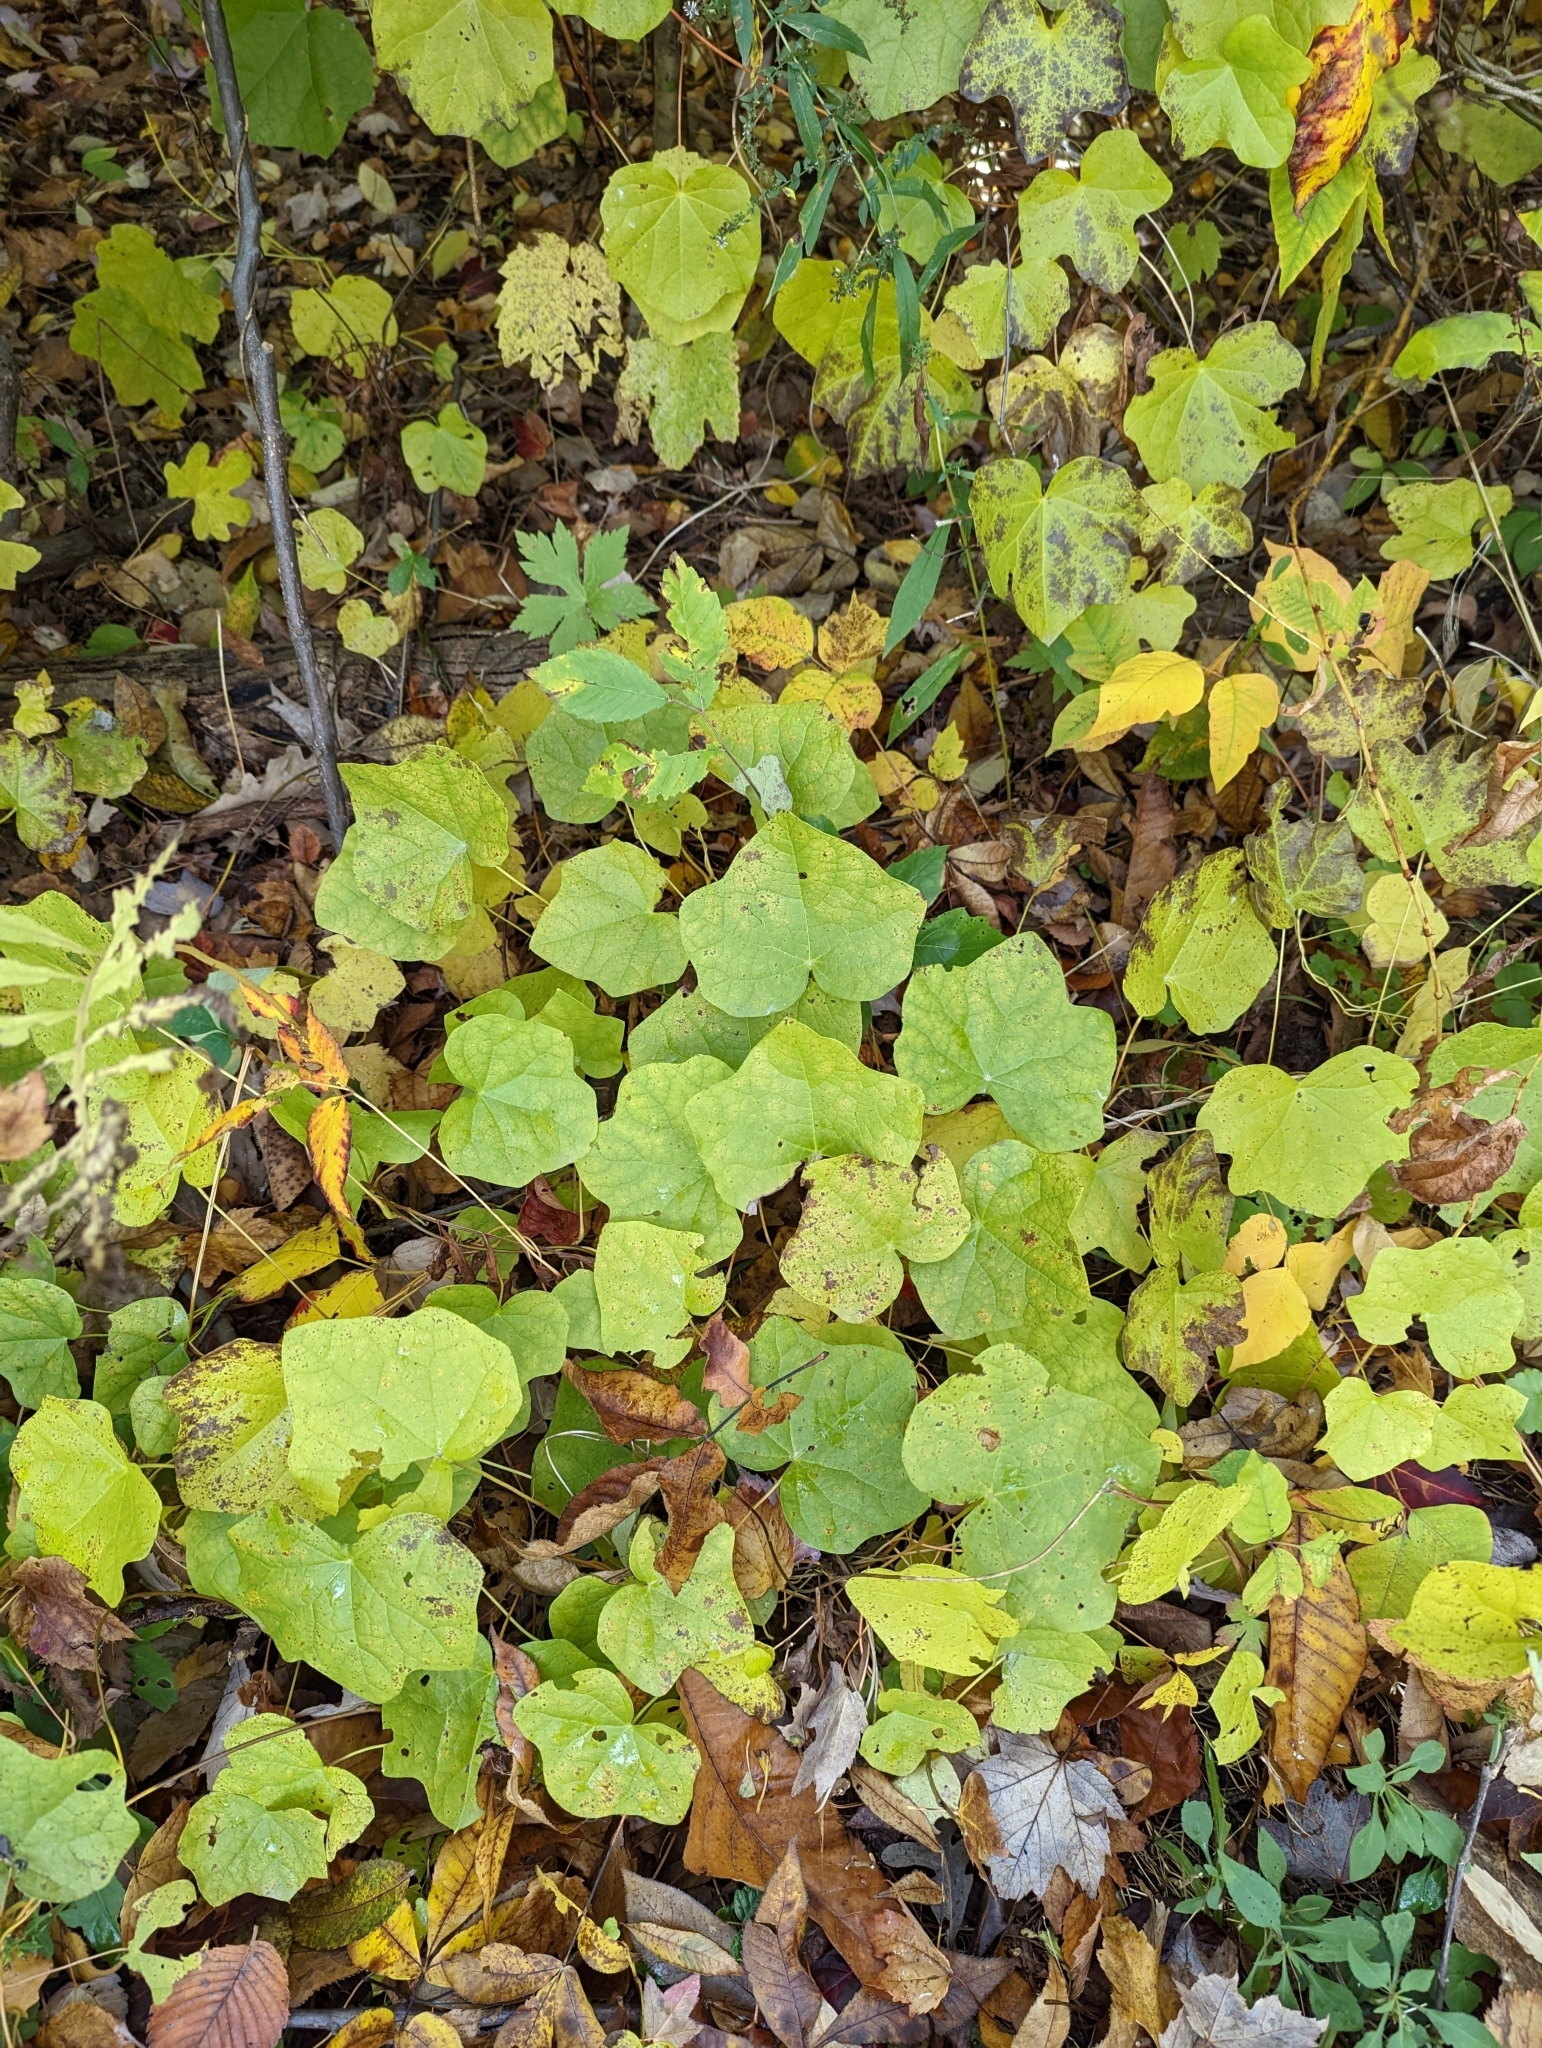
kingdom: Plantae
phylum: Tracheophyta
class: Magnoliopsida
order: Ranunculales
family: Menispermaceae
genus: Menispermum
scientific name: Menispermum canadense
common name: Moonseed
